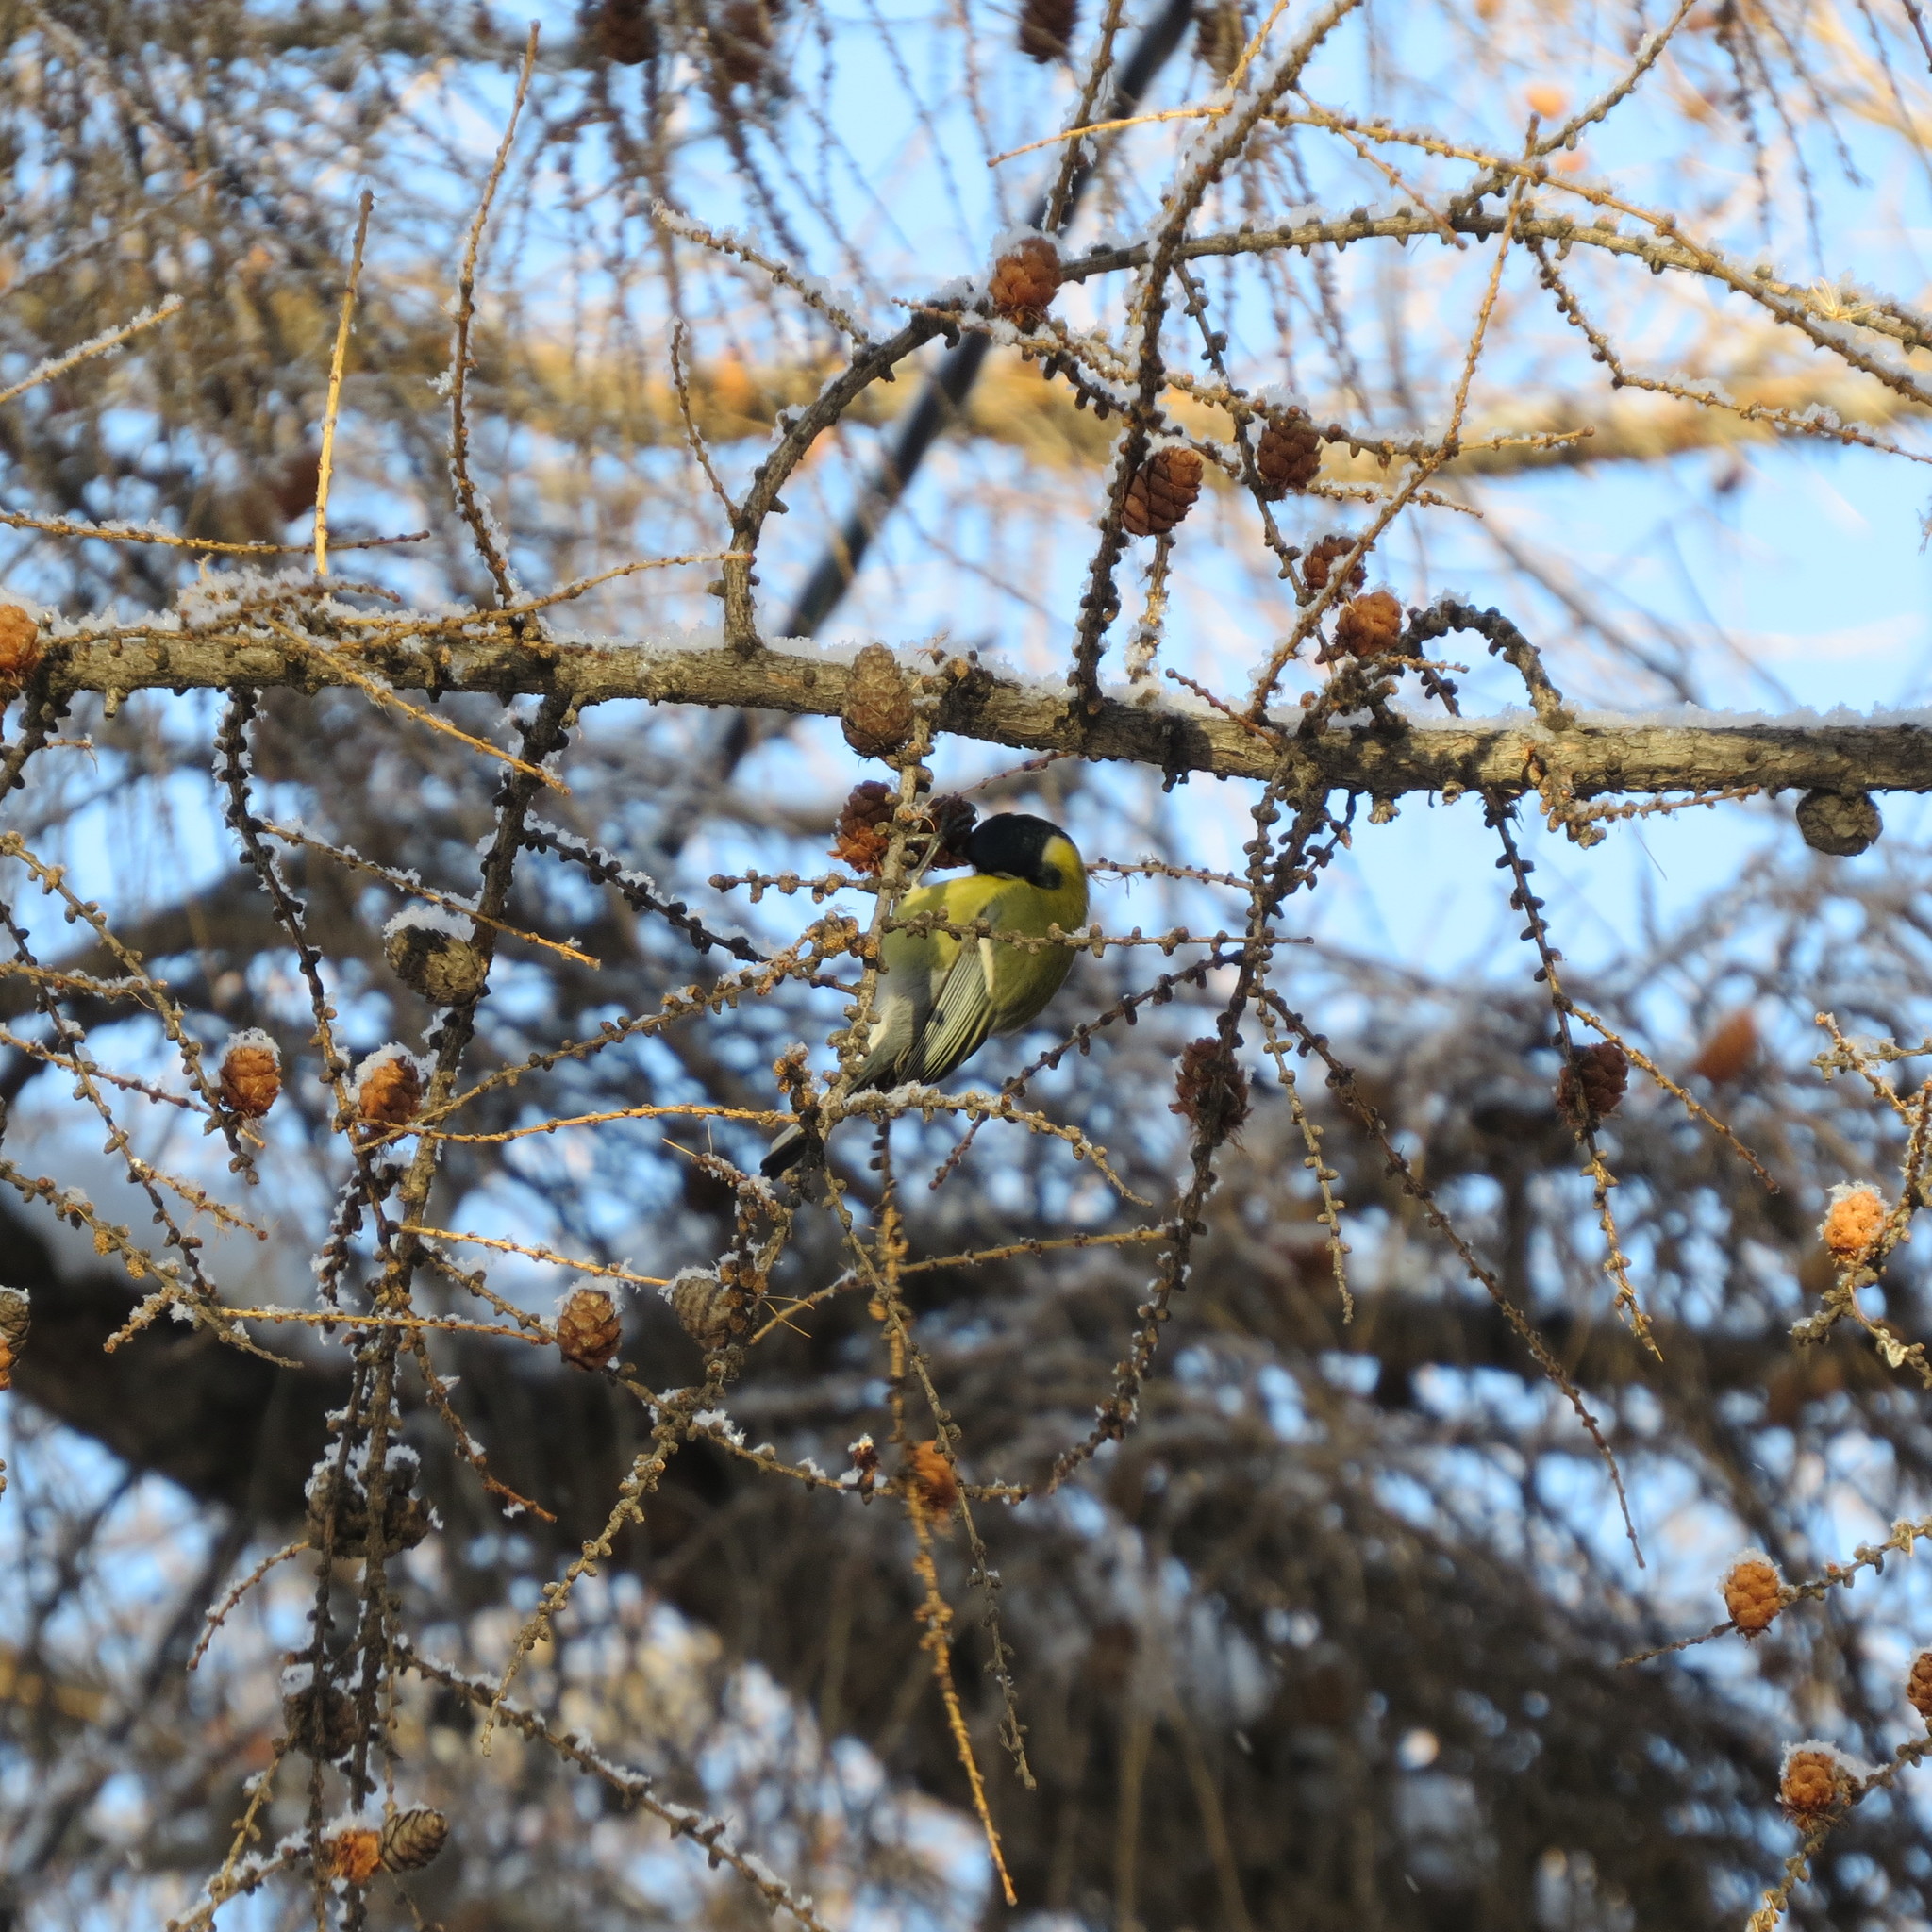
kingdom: Animalia
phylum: Chordata
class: Aves
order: Passeriformes
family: Paridae
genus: Parus
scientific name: Parus major
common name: Great tit
